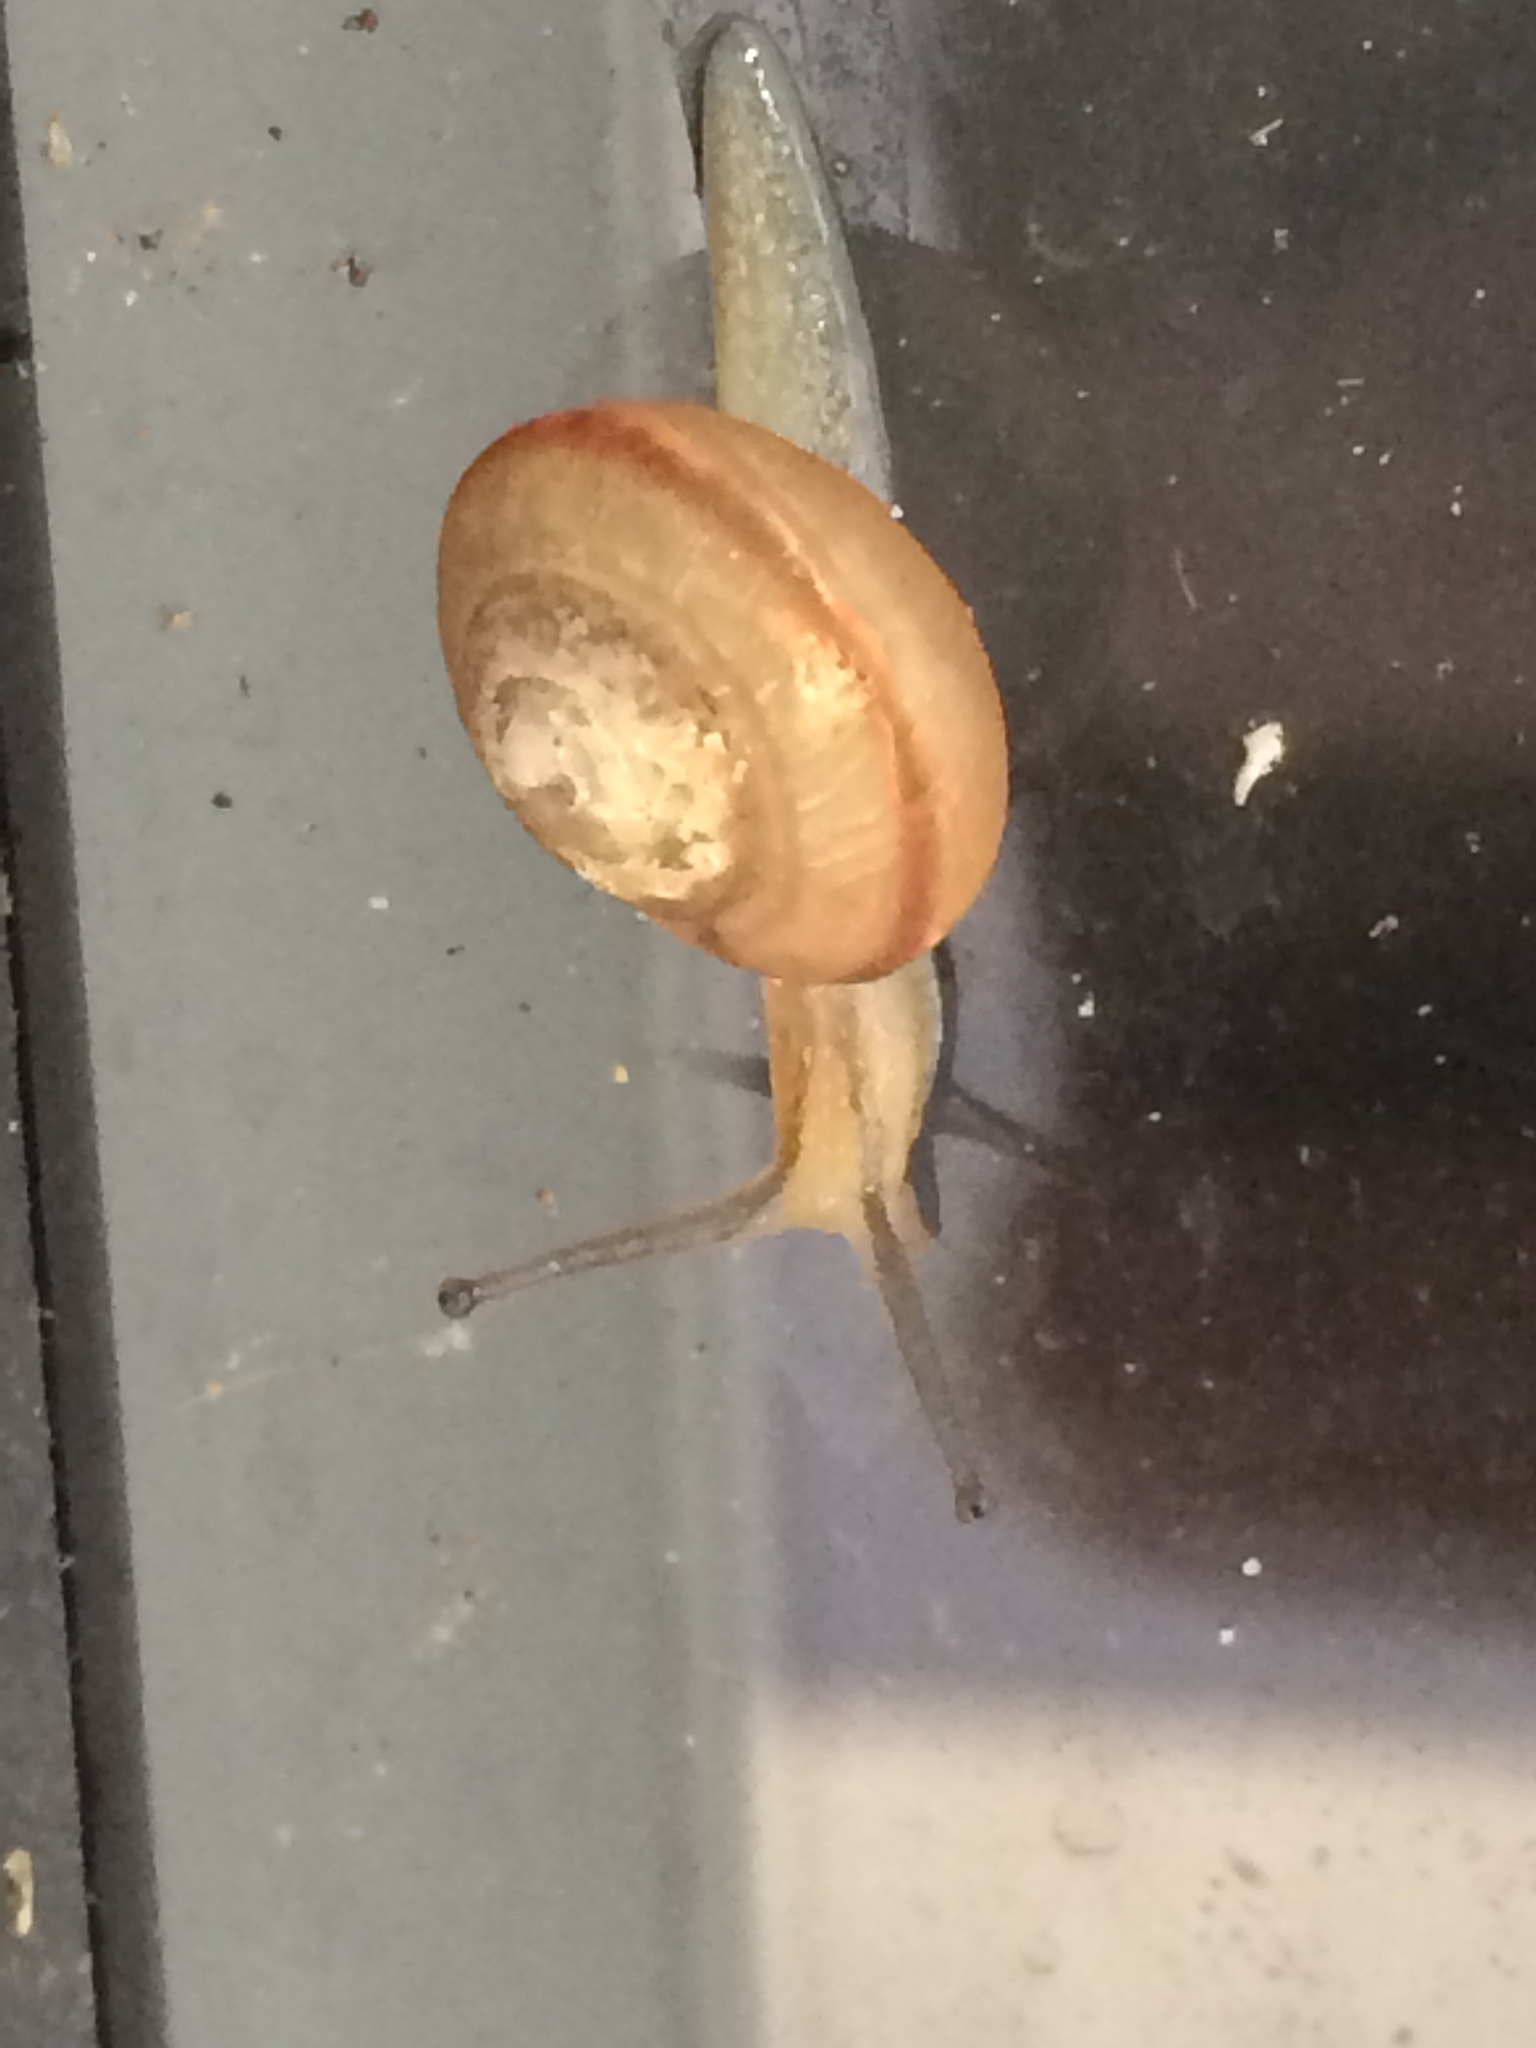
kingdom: Animalia
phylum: Mollusca
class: Gastropoda
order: Stylommatophora
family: Camaenidae
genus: Bradybaena
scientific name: Bradybaena similaris
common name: Asian trampsnail
